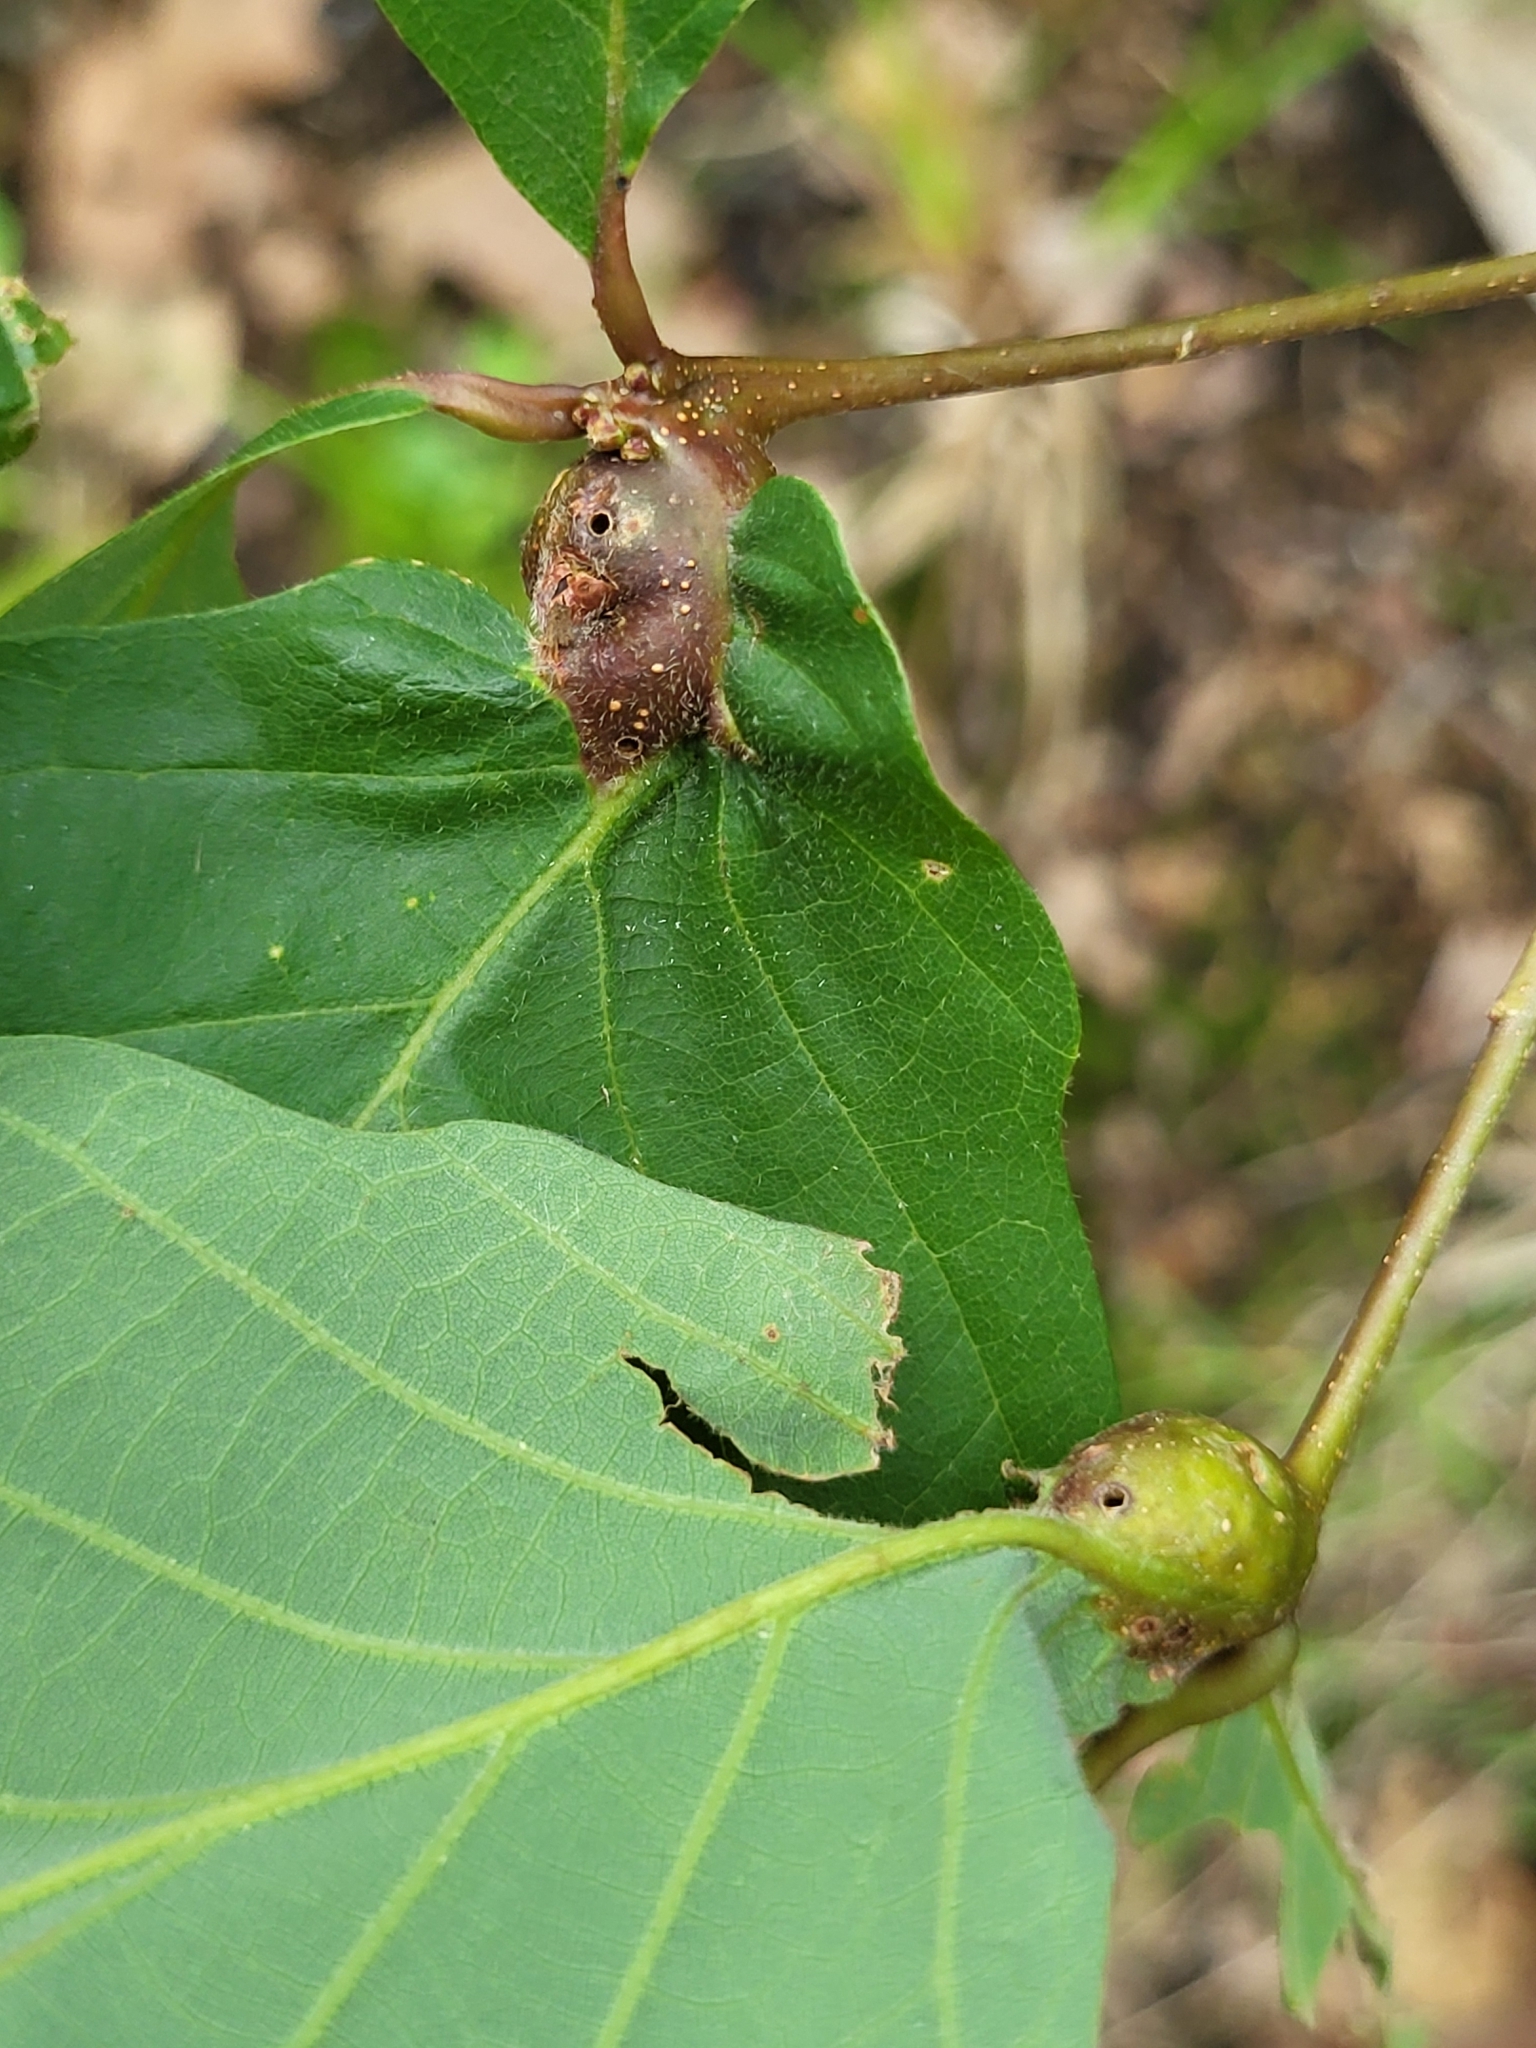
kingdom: Animalia
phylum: Arthropoda
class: Insecta
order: Hymenoptera
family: Cynipidae
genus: Andricus
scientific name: Andricus
